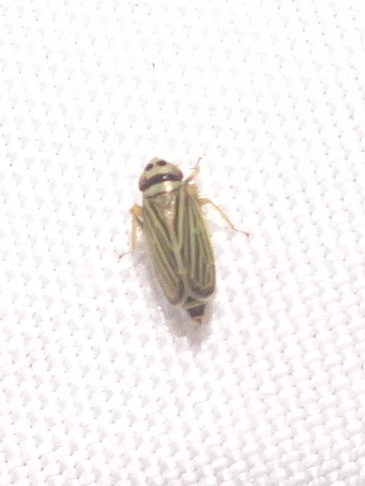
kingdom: Animalia
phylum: Arthropoda
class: Insecta
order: Hemiptera
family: Cicadellidae
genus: Amblysellus
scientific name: Amblysellus curtisii
